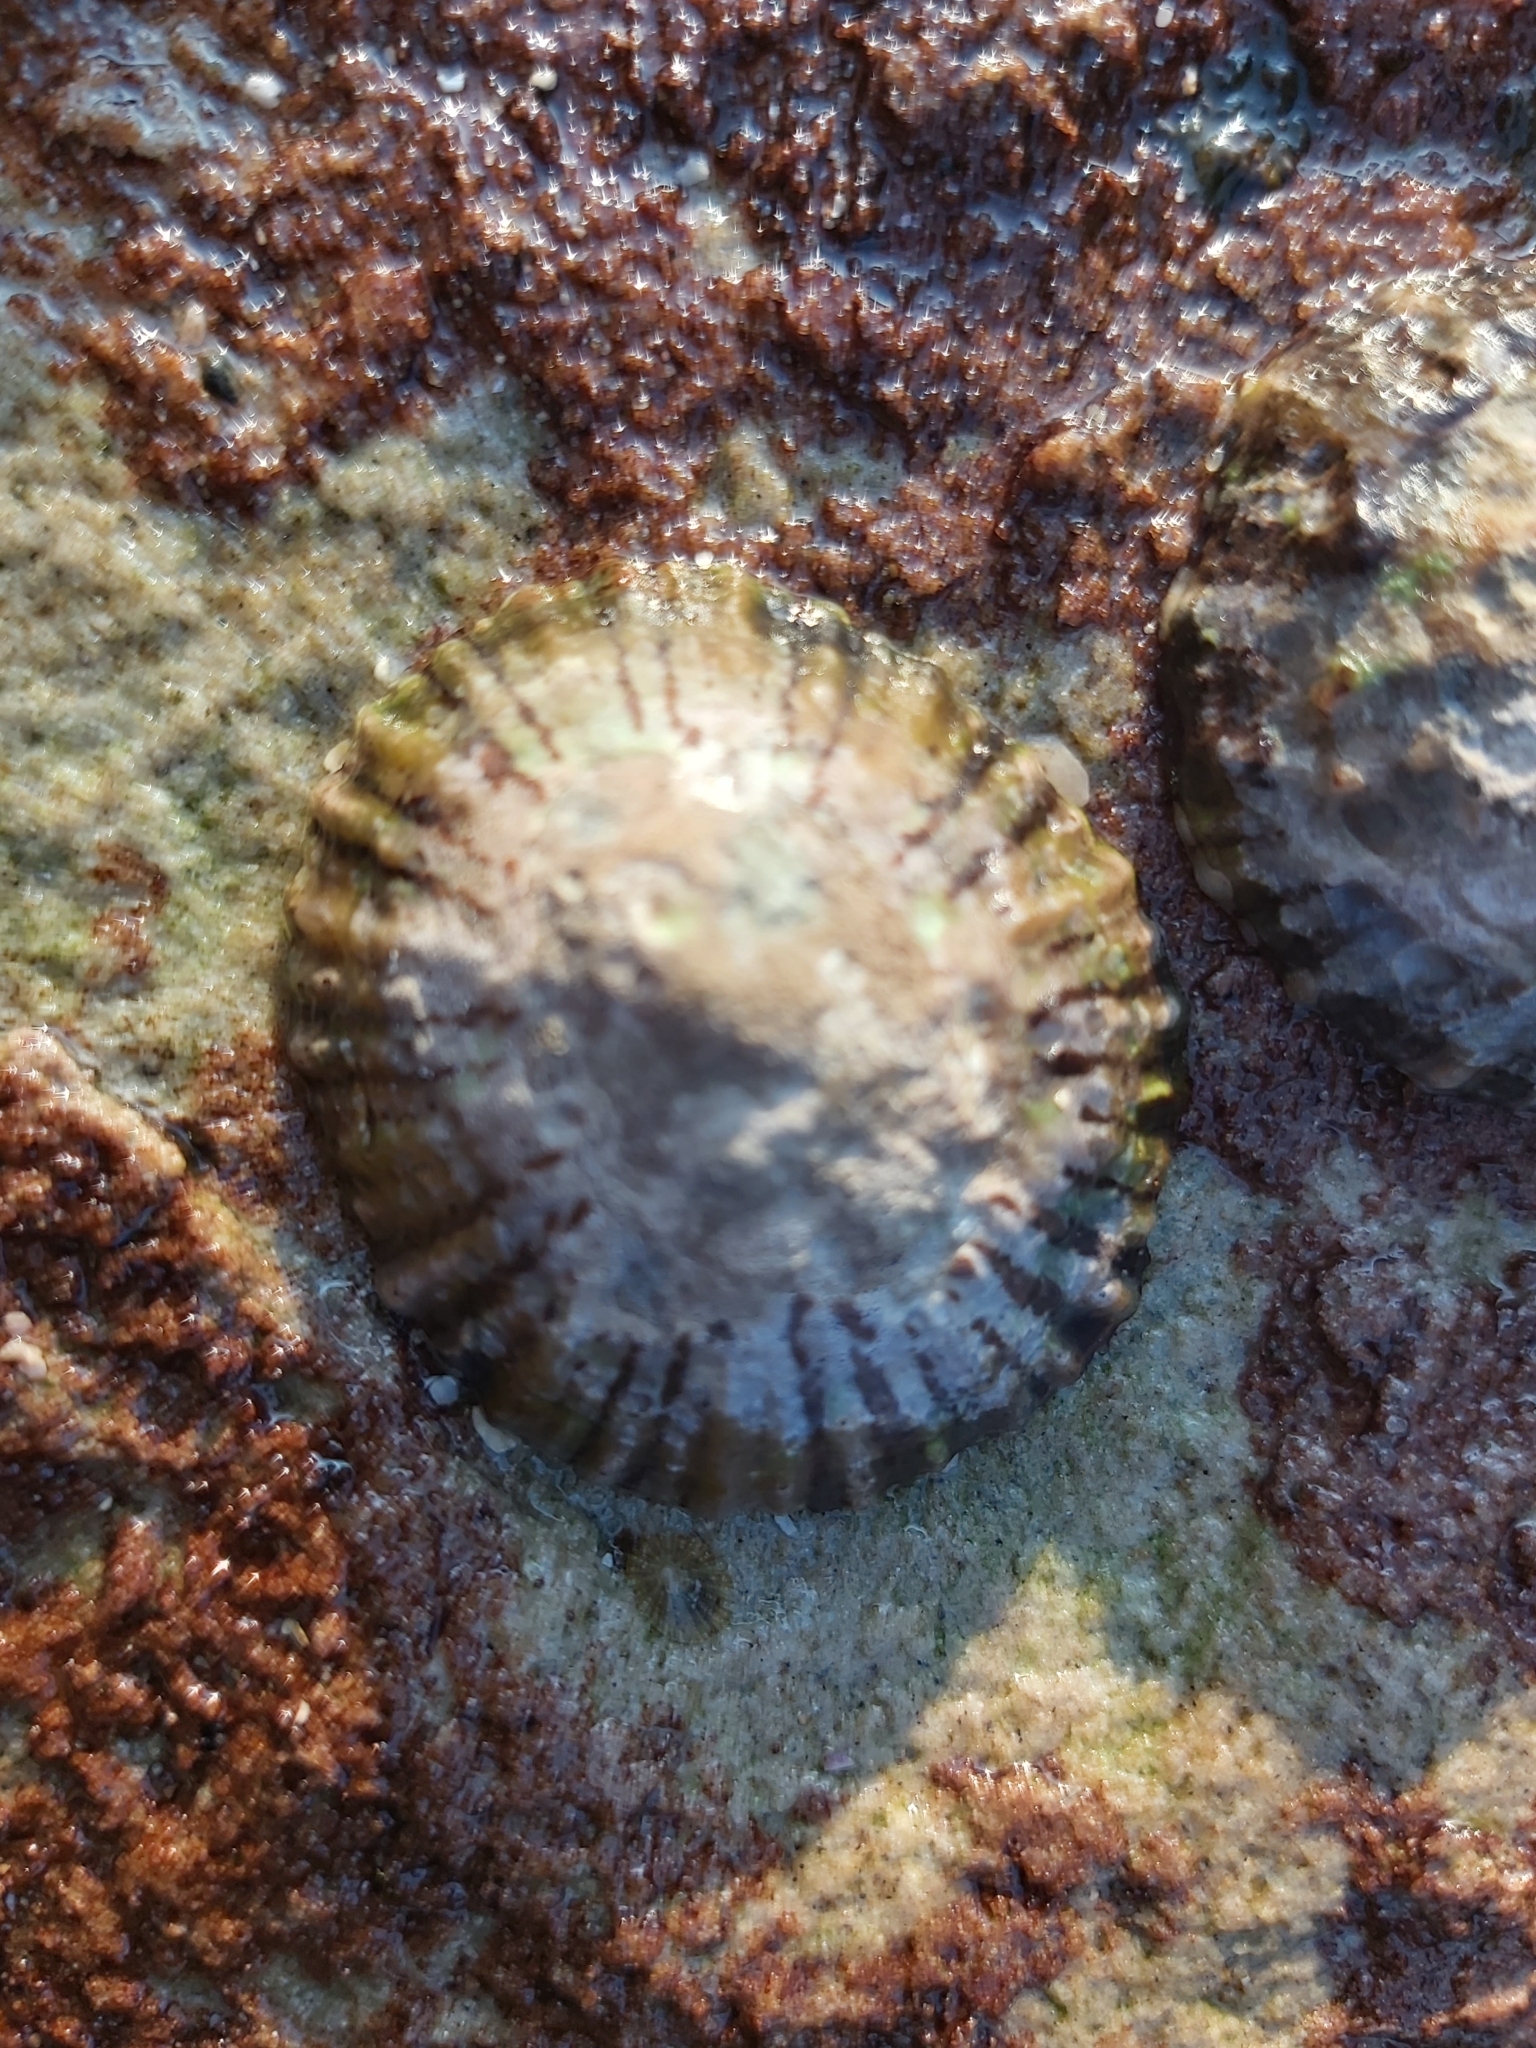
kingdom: Animalia
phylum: Mollusca
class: Gastropoda
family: Nacellidae
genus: Cellana
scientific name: Cellana tramoserica
